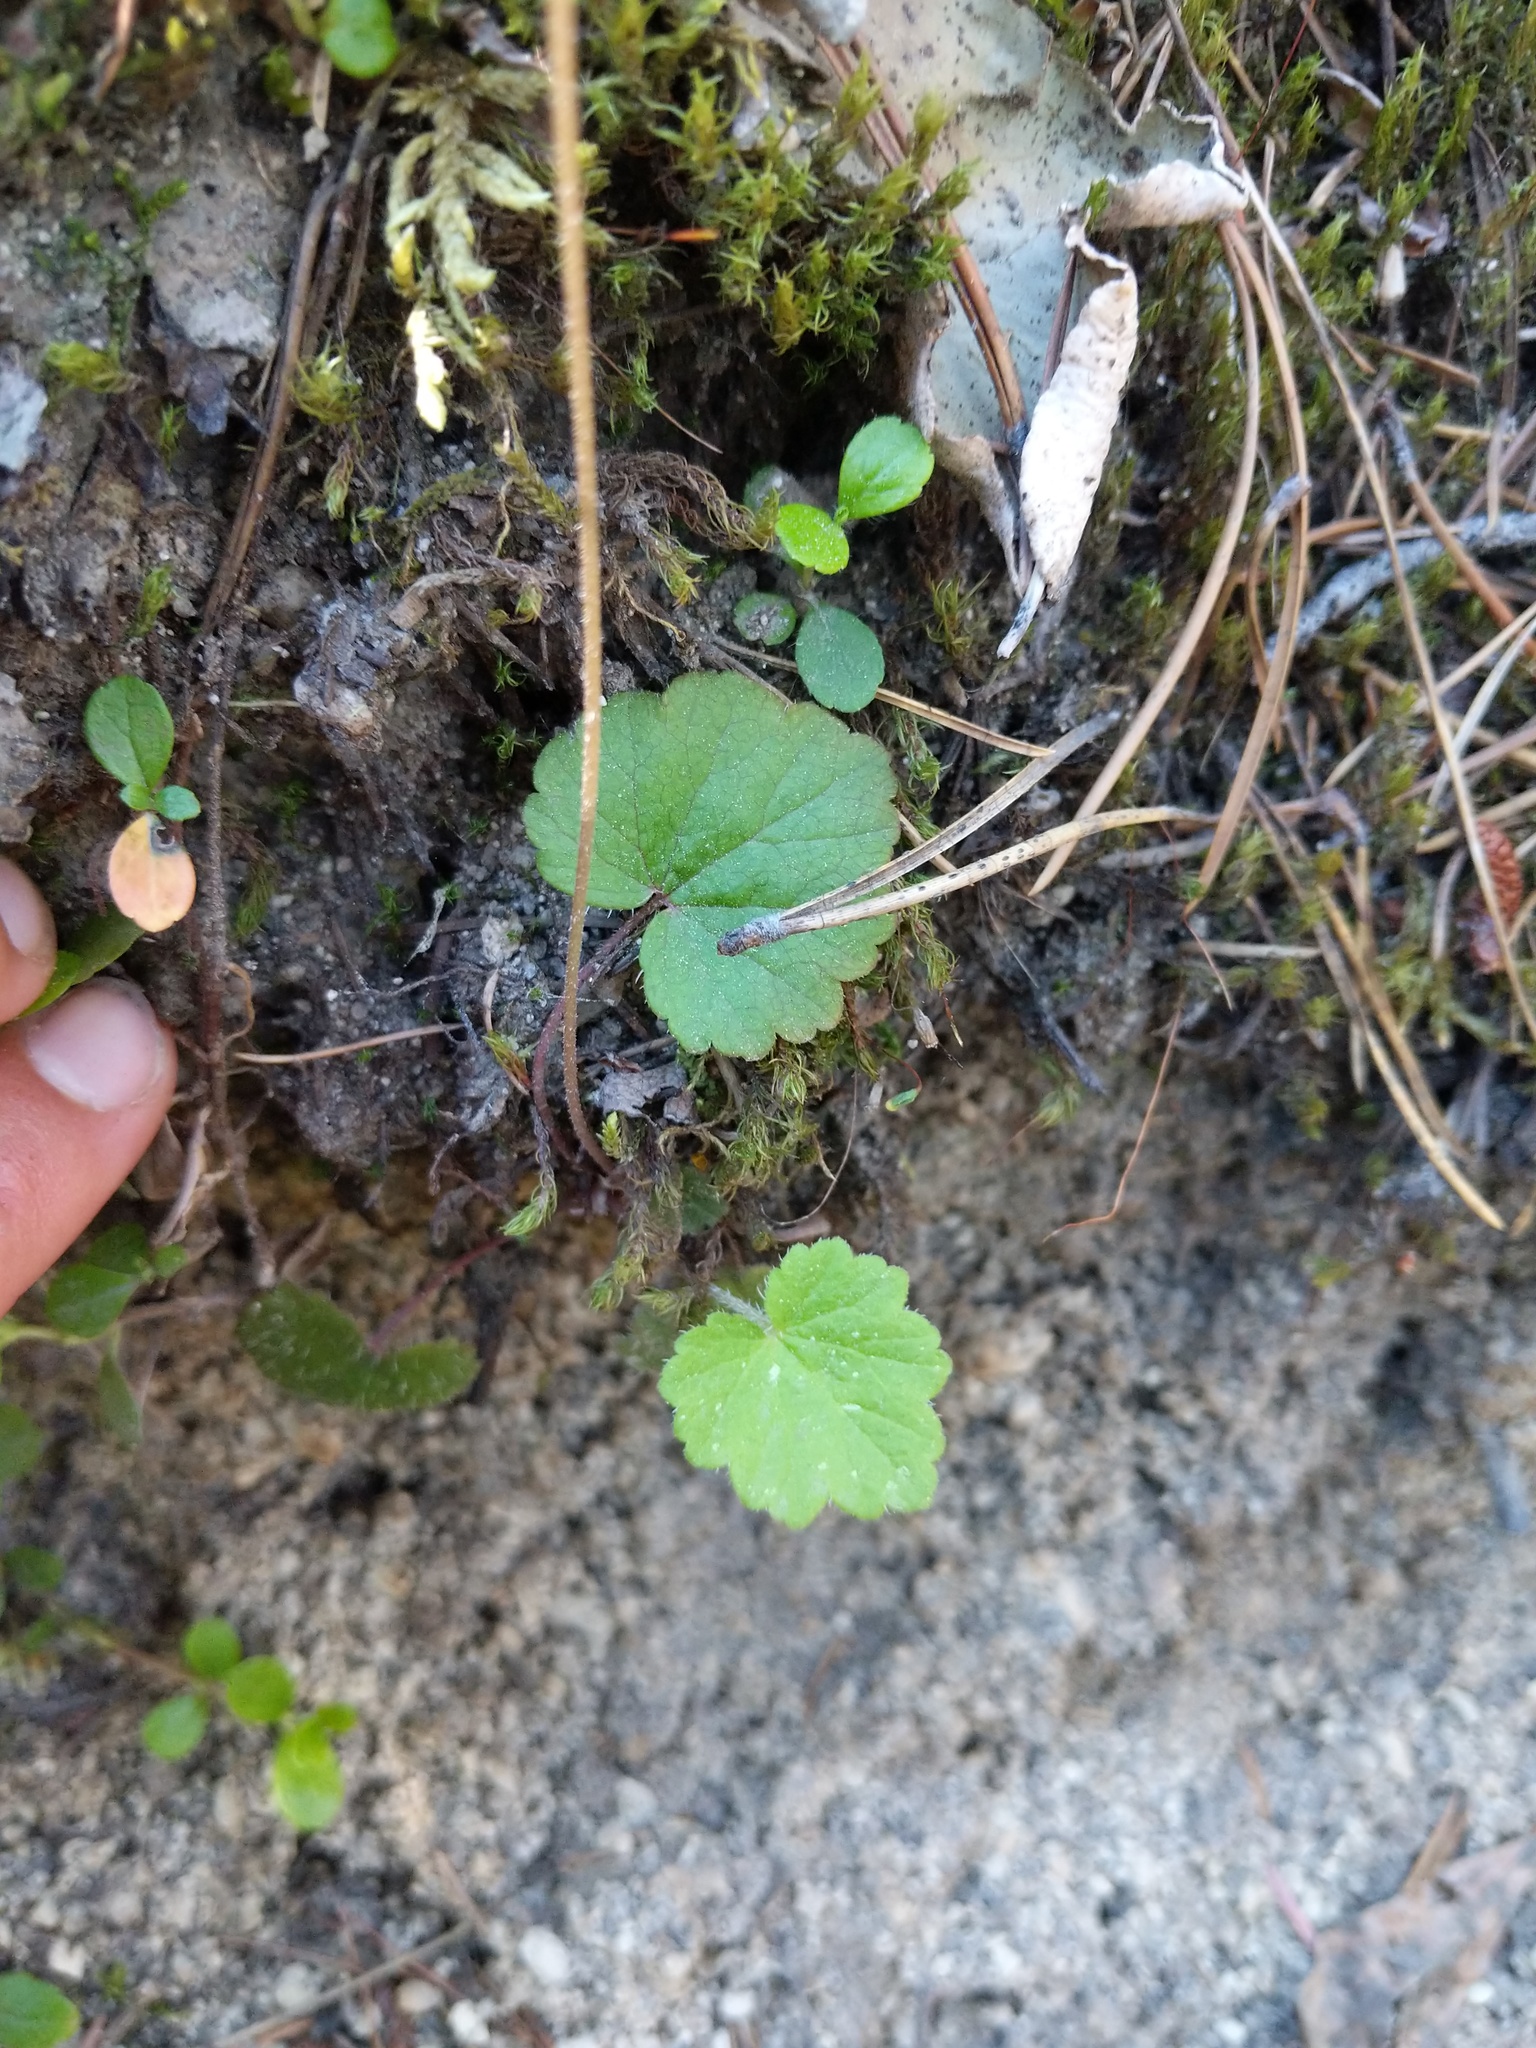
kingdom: Plantae
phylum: Tracheophyta
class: Magnoliopsida
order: Saxifragales
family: Saxifragaceae
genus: Ozomelis
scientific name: Ozomelis trifida
